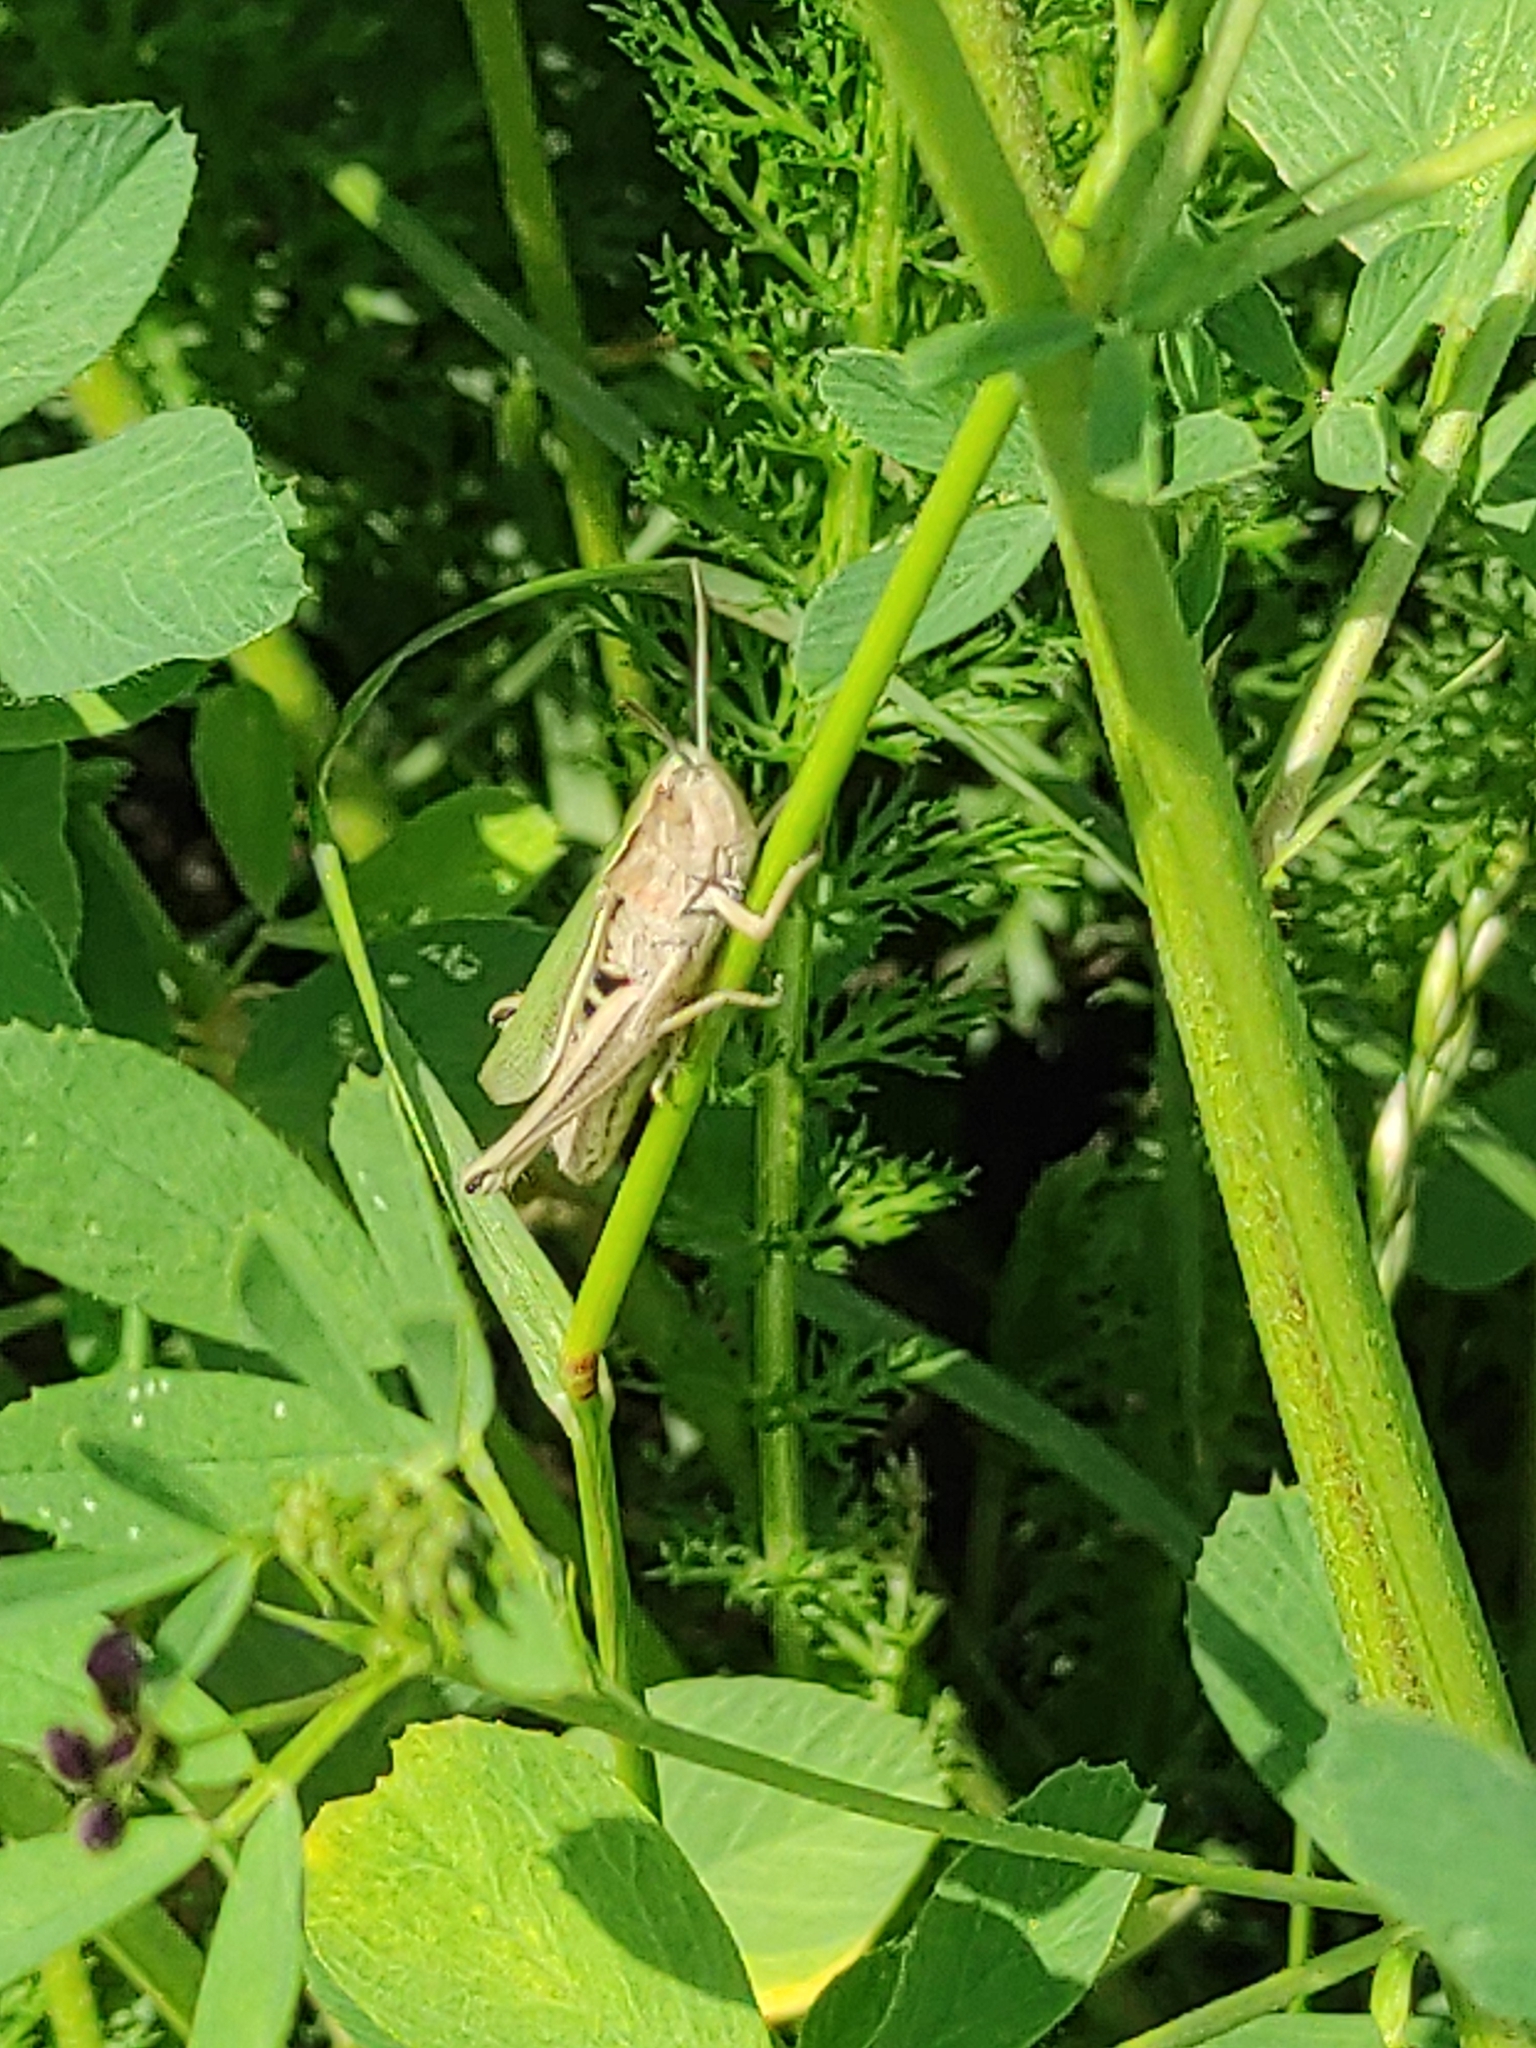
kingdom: Animalia
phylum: Arthropoda
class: Insecta
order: Orthoptera
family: Acrididae
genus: Chorthippus
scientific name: Chorthippus albomarginatus
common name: Lesser marsh grasshopper
